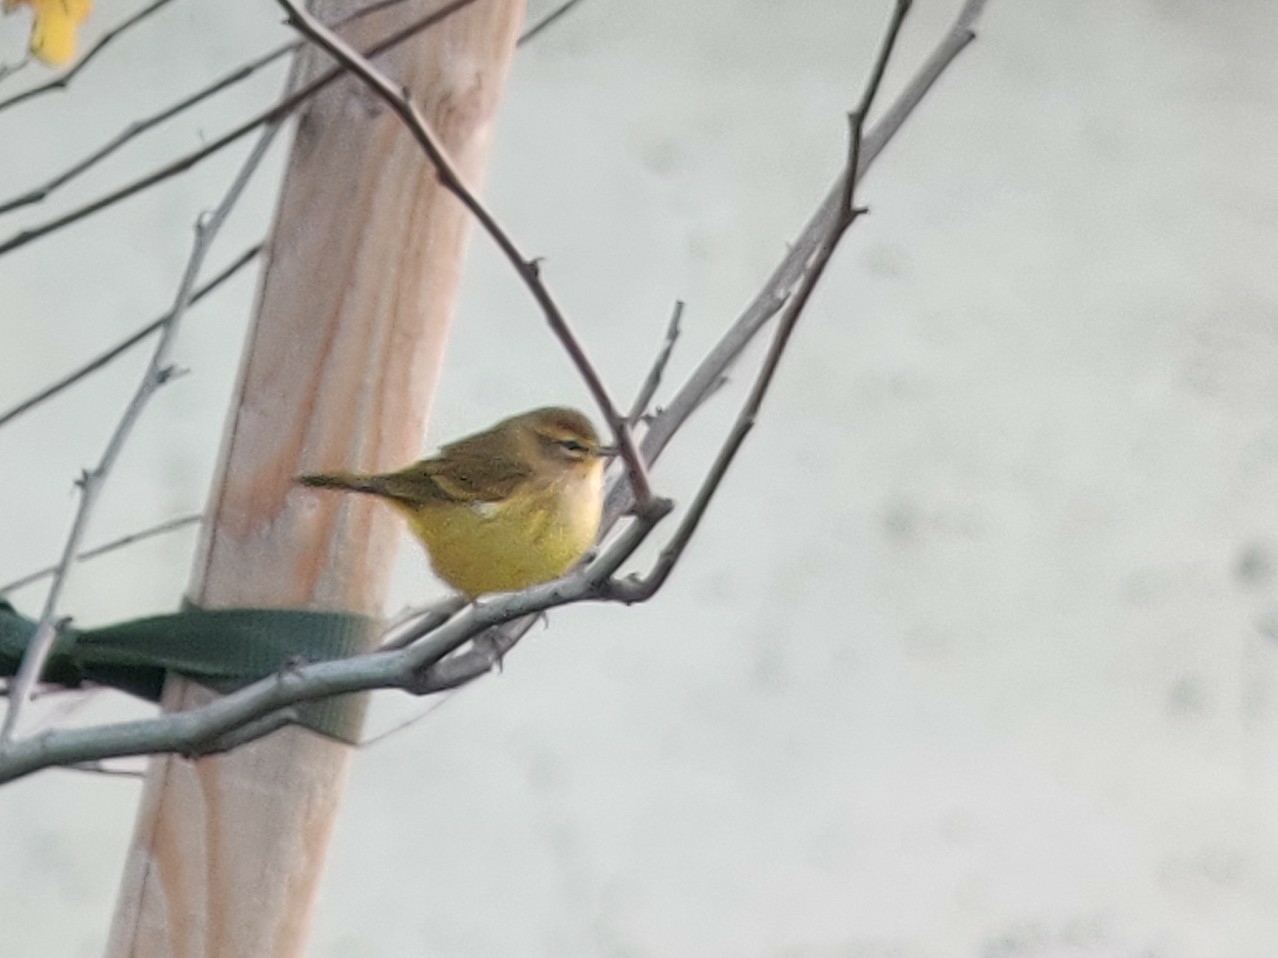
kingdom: Animalia
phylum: Chordata
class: Aves
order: Passeriformes
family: Parulidae
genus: Setophaga
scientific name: Setophaga palmarum
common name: Palm warbler
